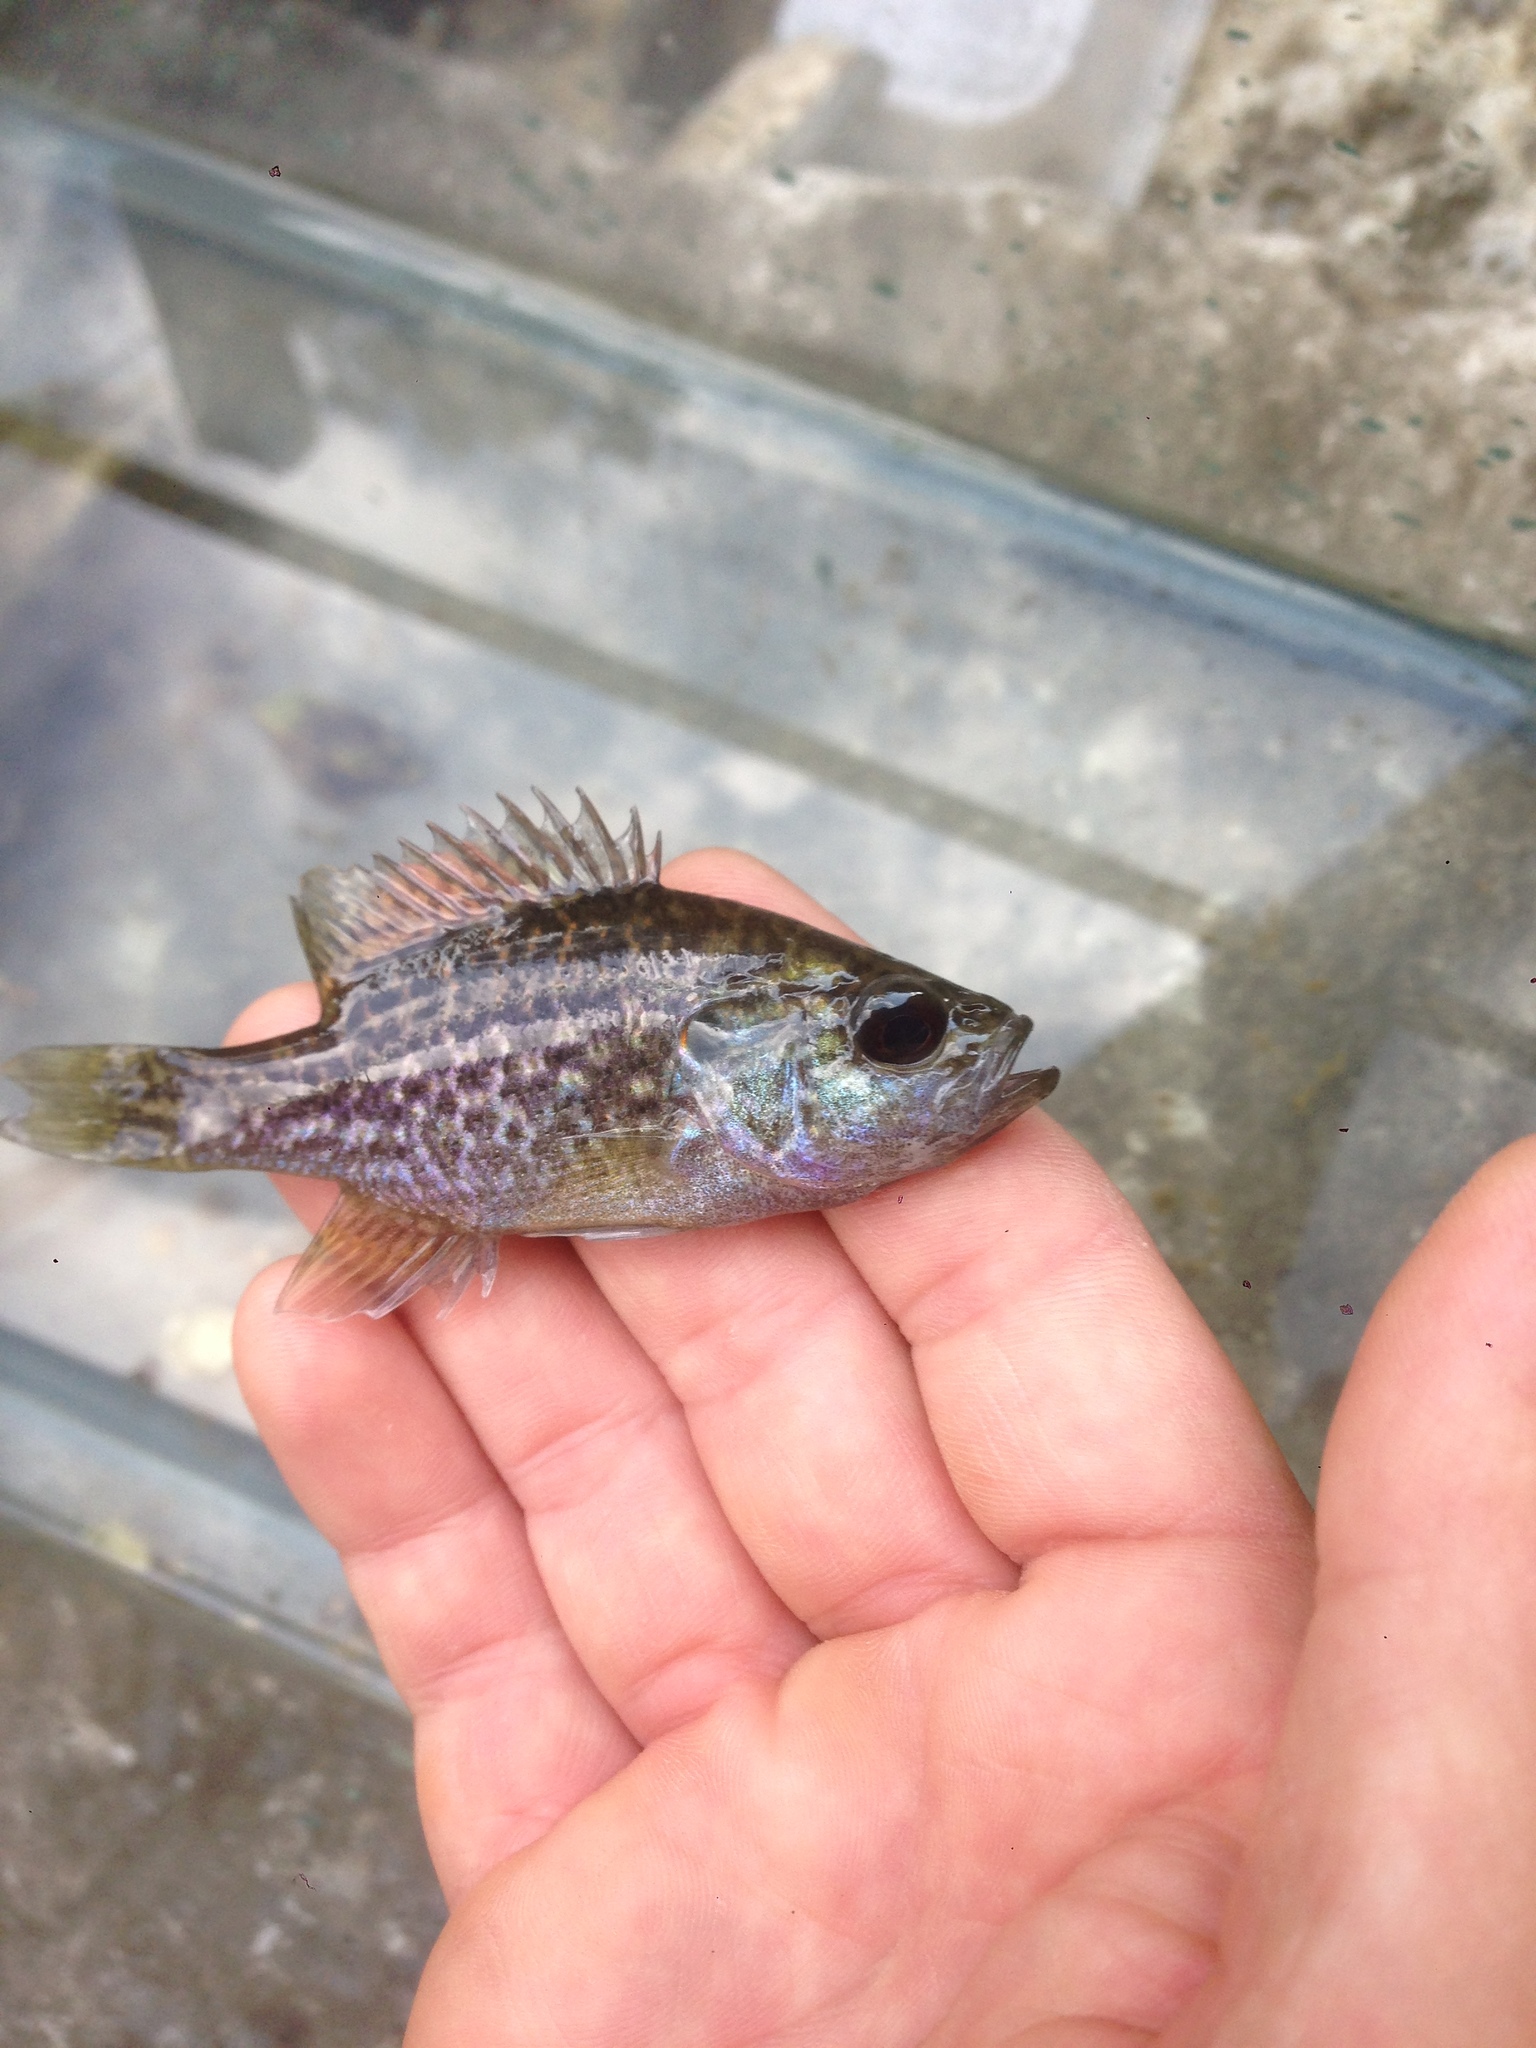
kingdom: Animalia
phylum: Chordata
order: Perciformes
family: Centrarchidae
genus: Lepomis
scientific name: Lepomis gulosus
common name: Warmouth
